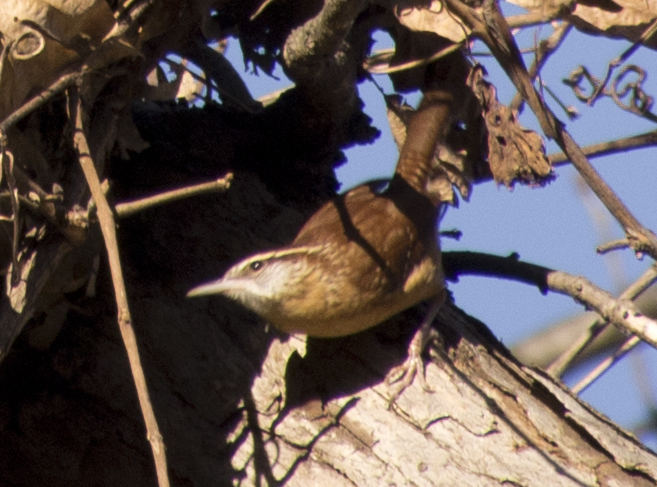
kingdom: Animalia
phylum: Chordata
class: Aves
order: Passeriformes
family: Troglodytidae
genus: Thryothorus
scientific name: Thryothorus ludovicianus
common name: Carolina wren
